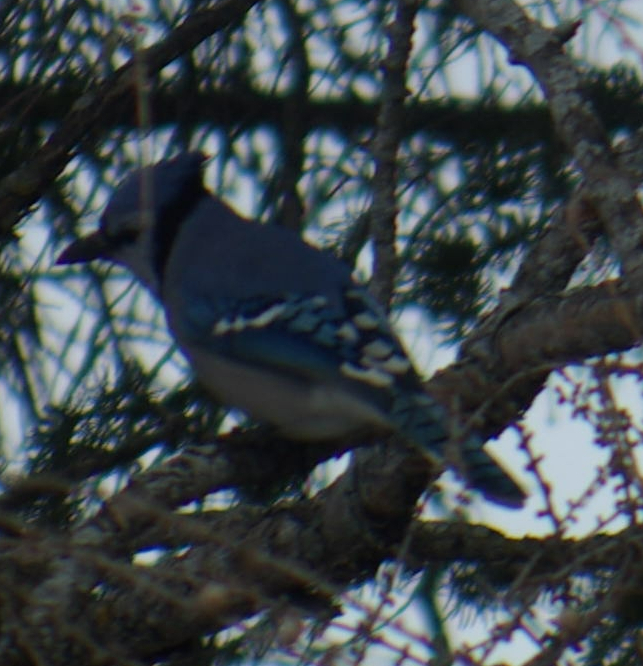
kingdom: Animalia
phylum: Chordata
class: Aves
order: Passeriformes
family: Corvidae
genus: Cyanocitta
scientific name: Cyanocitta cristata
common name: Blue jay
